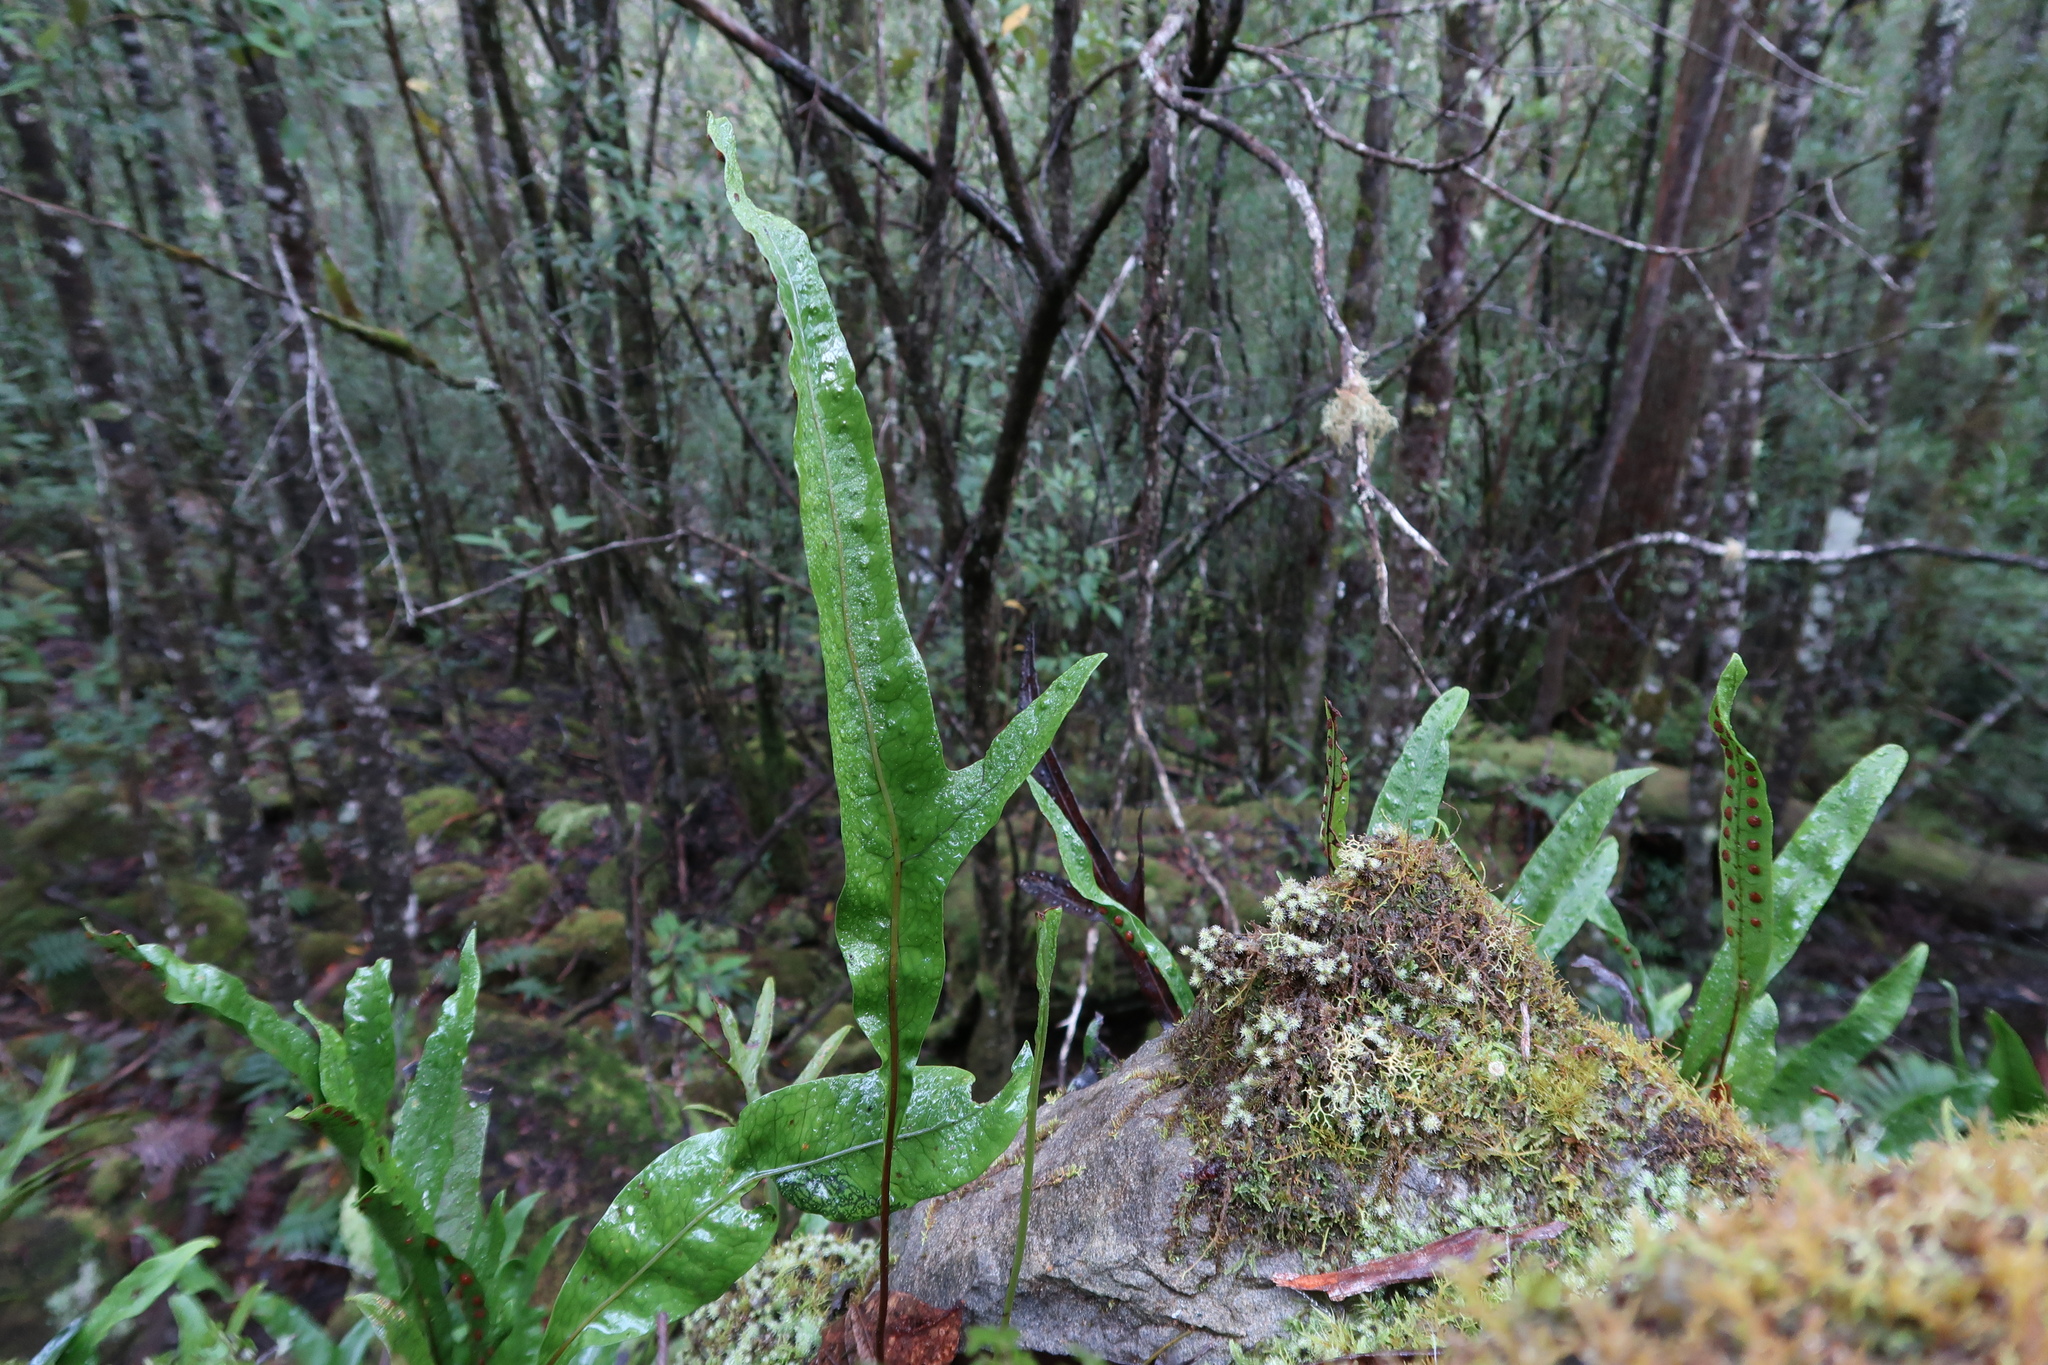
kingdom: Plantae
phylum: Tracheophyta
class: Polypodiopsida
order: Polypodiales
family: Polypodiaceae
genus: Lecanopteris
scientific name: Lecanopteris pustulata
